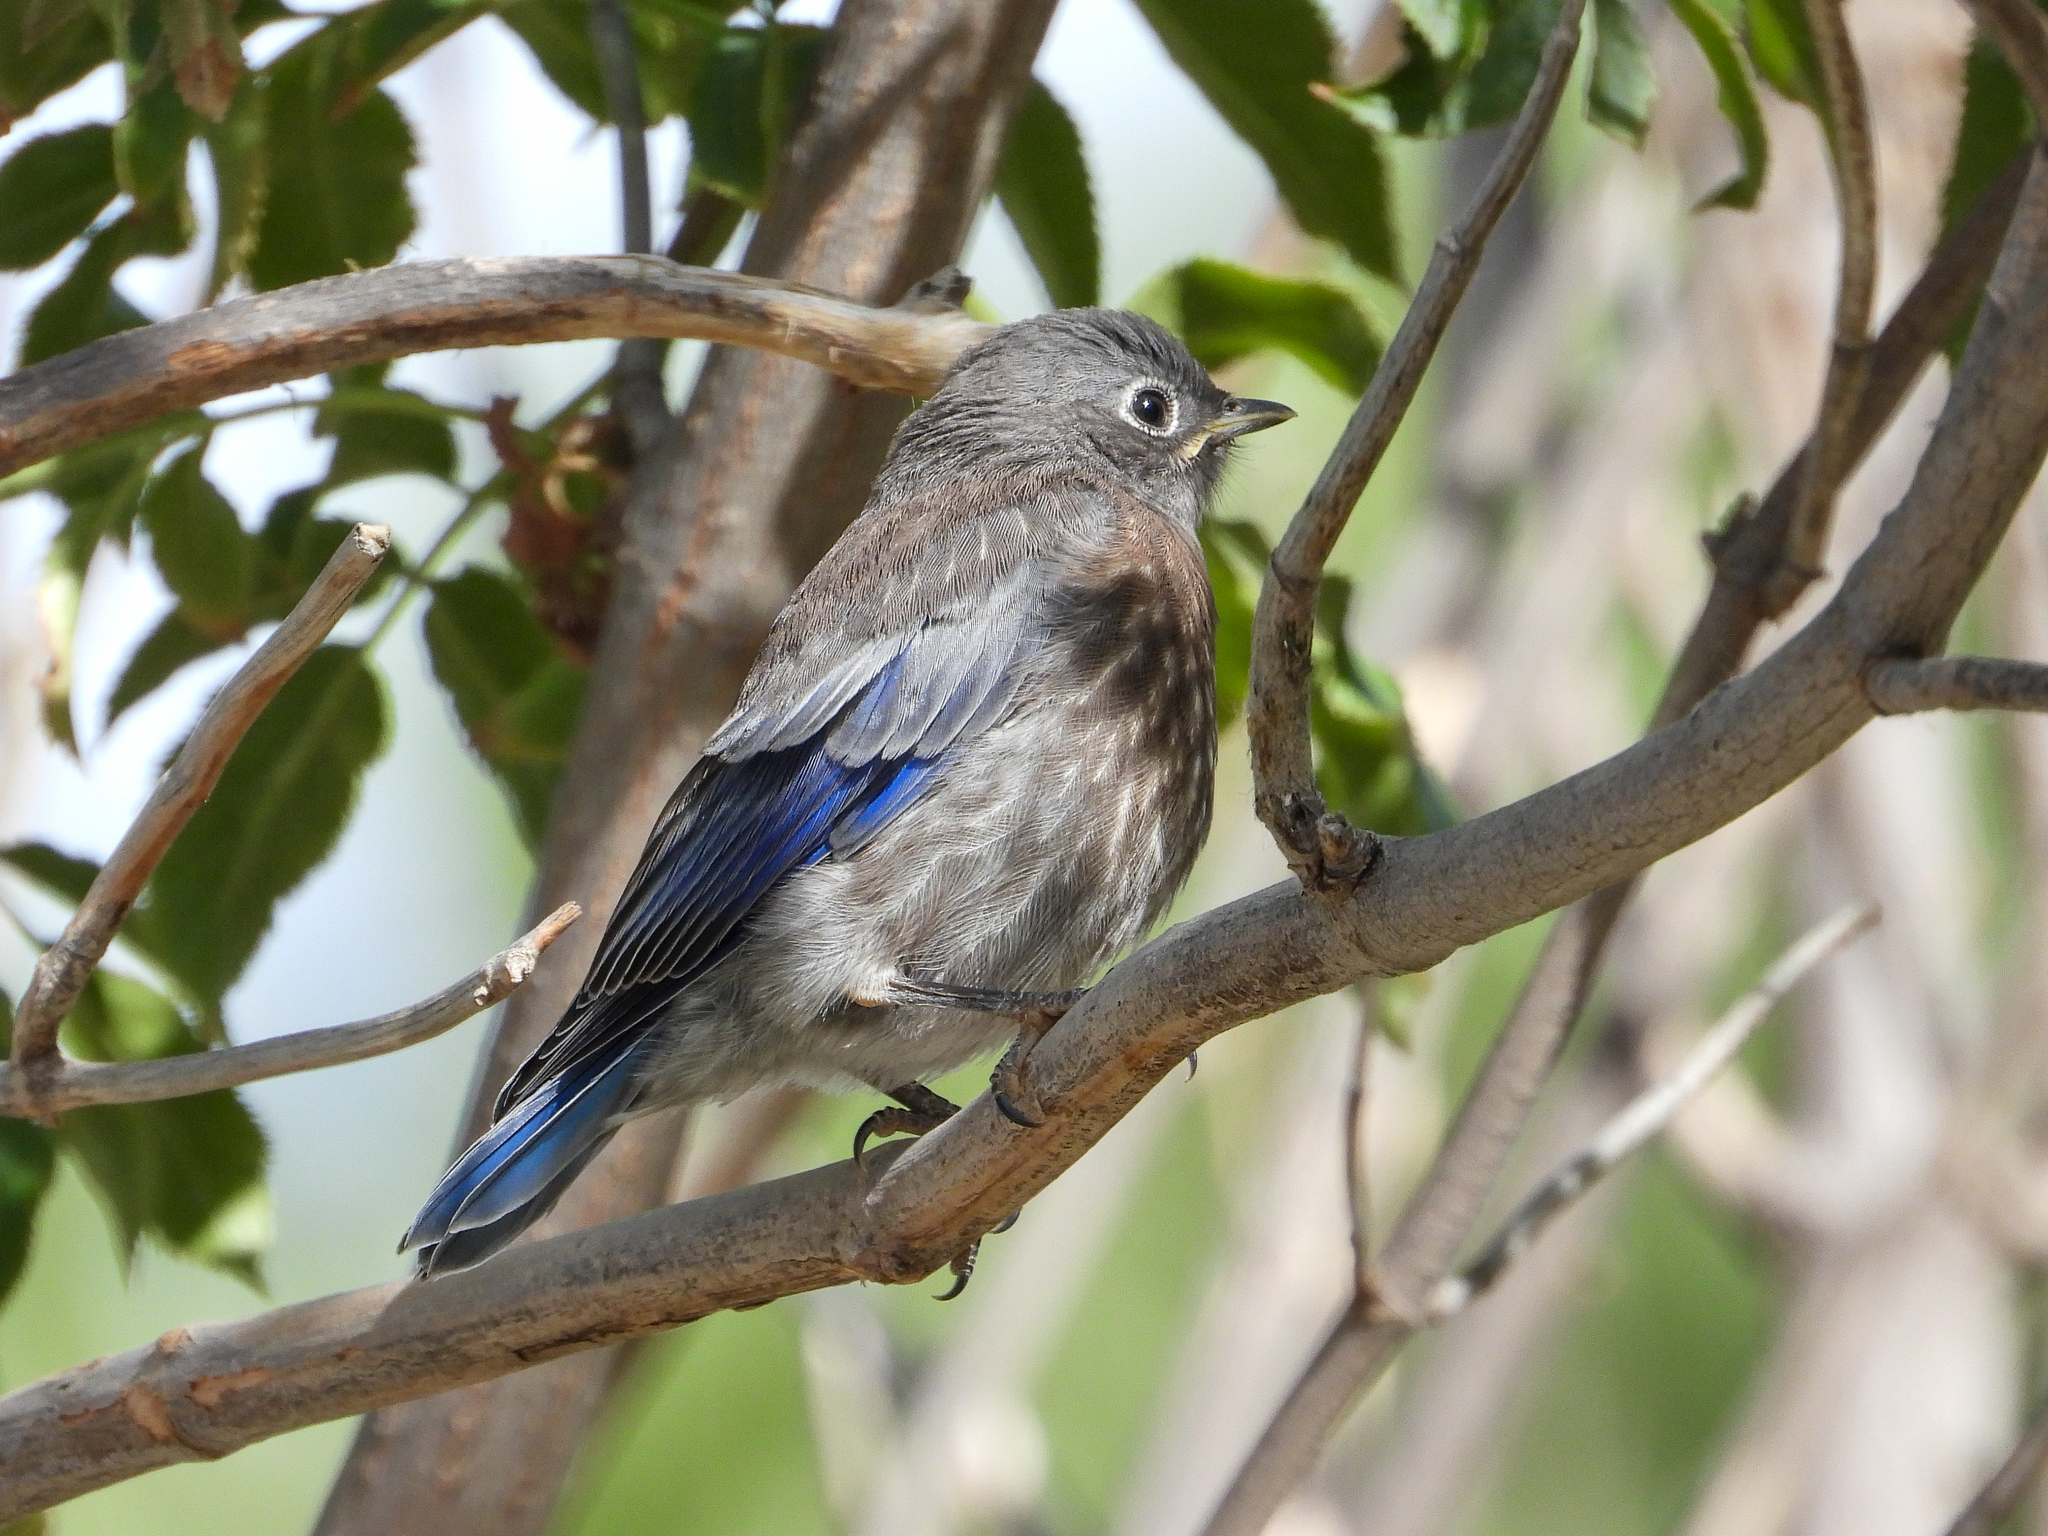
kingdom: Animalia
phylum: Chordata
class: Aves
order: Passeriformes
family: Turdidae
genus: Sialia
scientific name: Sialia mexicana
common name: Western bluebird
